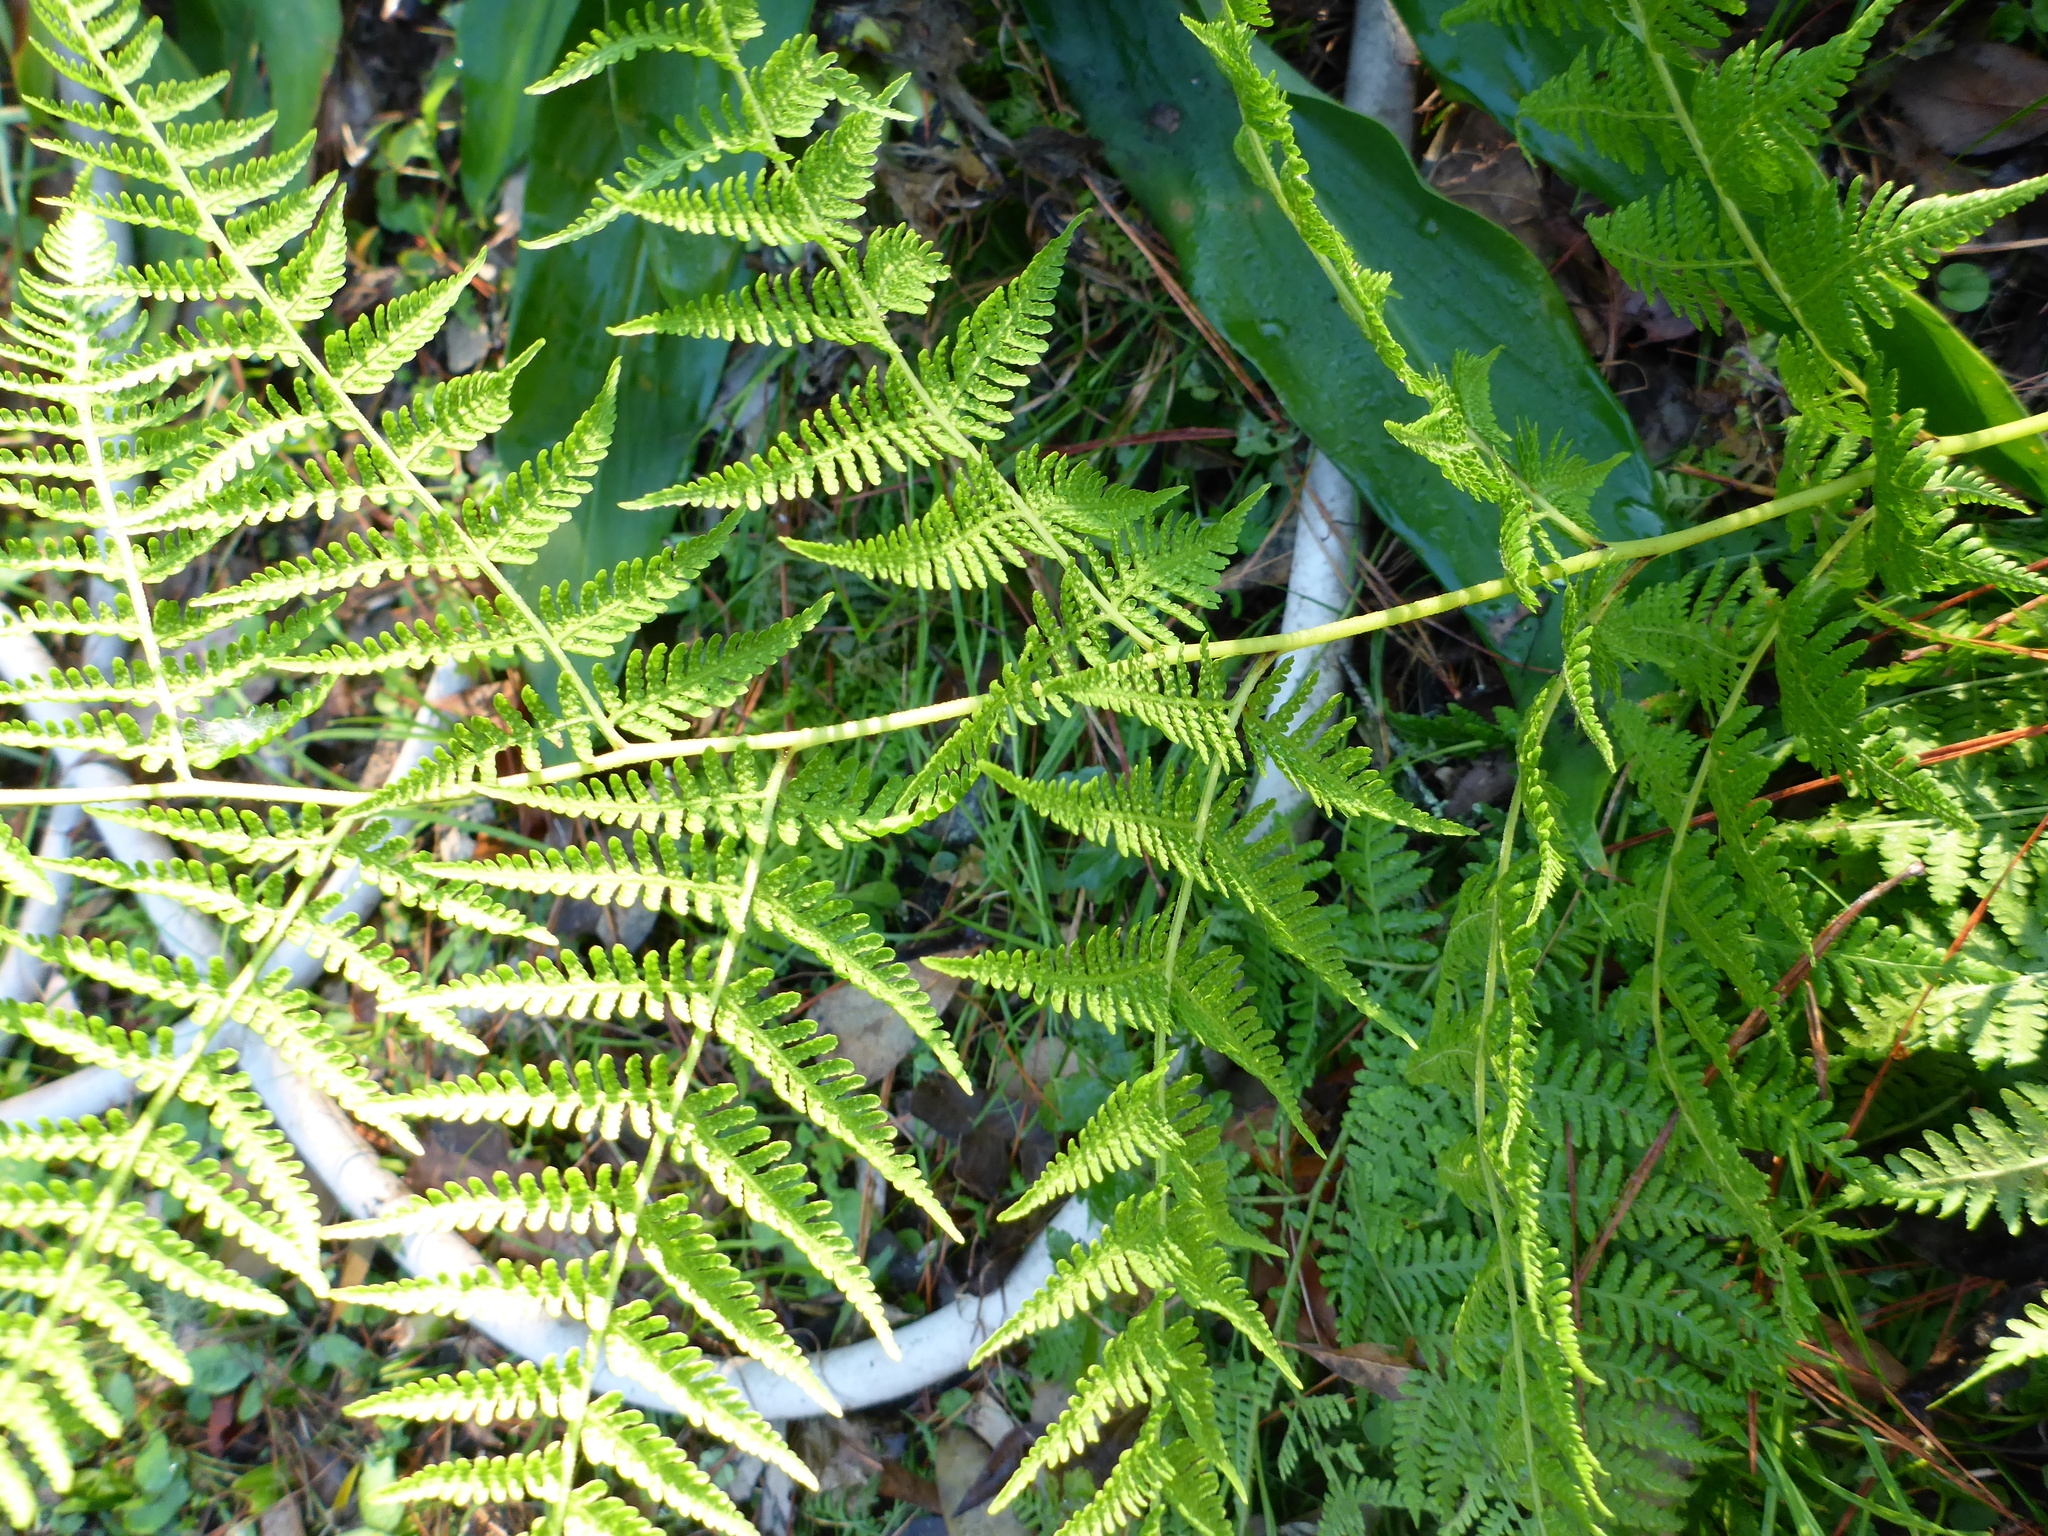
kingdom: Plantae
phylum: Tracheophyta
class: Polypodiopsida
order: Polypodiales
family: Dennstaedtiaceae
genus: Pteridium
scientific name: Pteridium aquilinum
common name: Bracken
